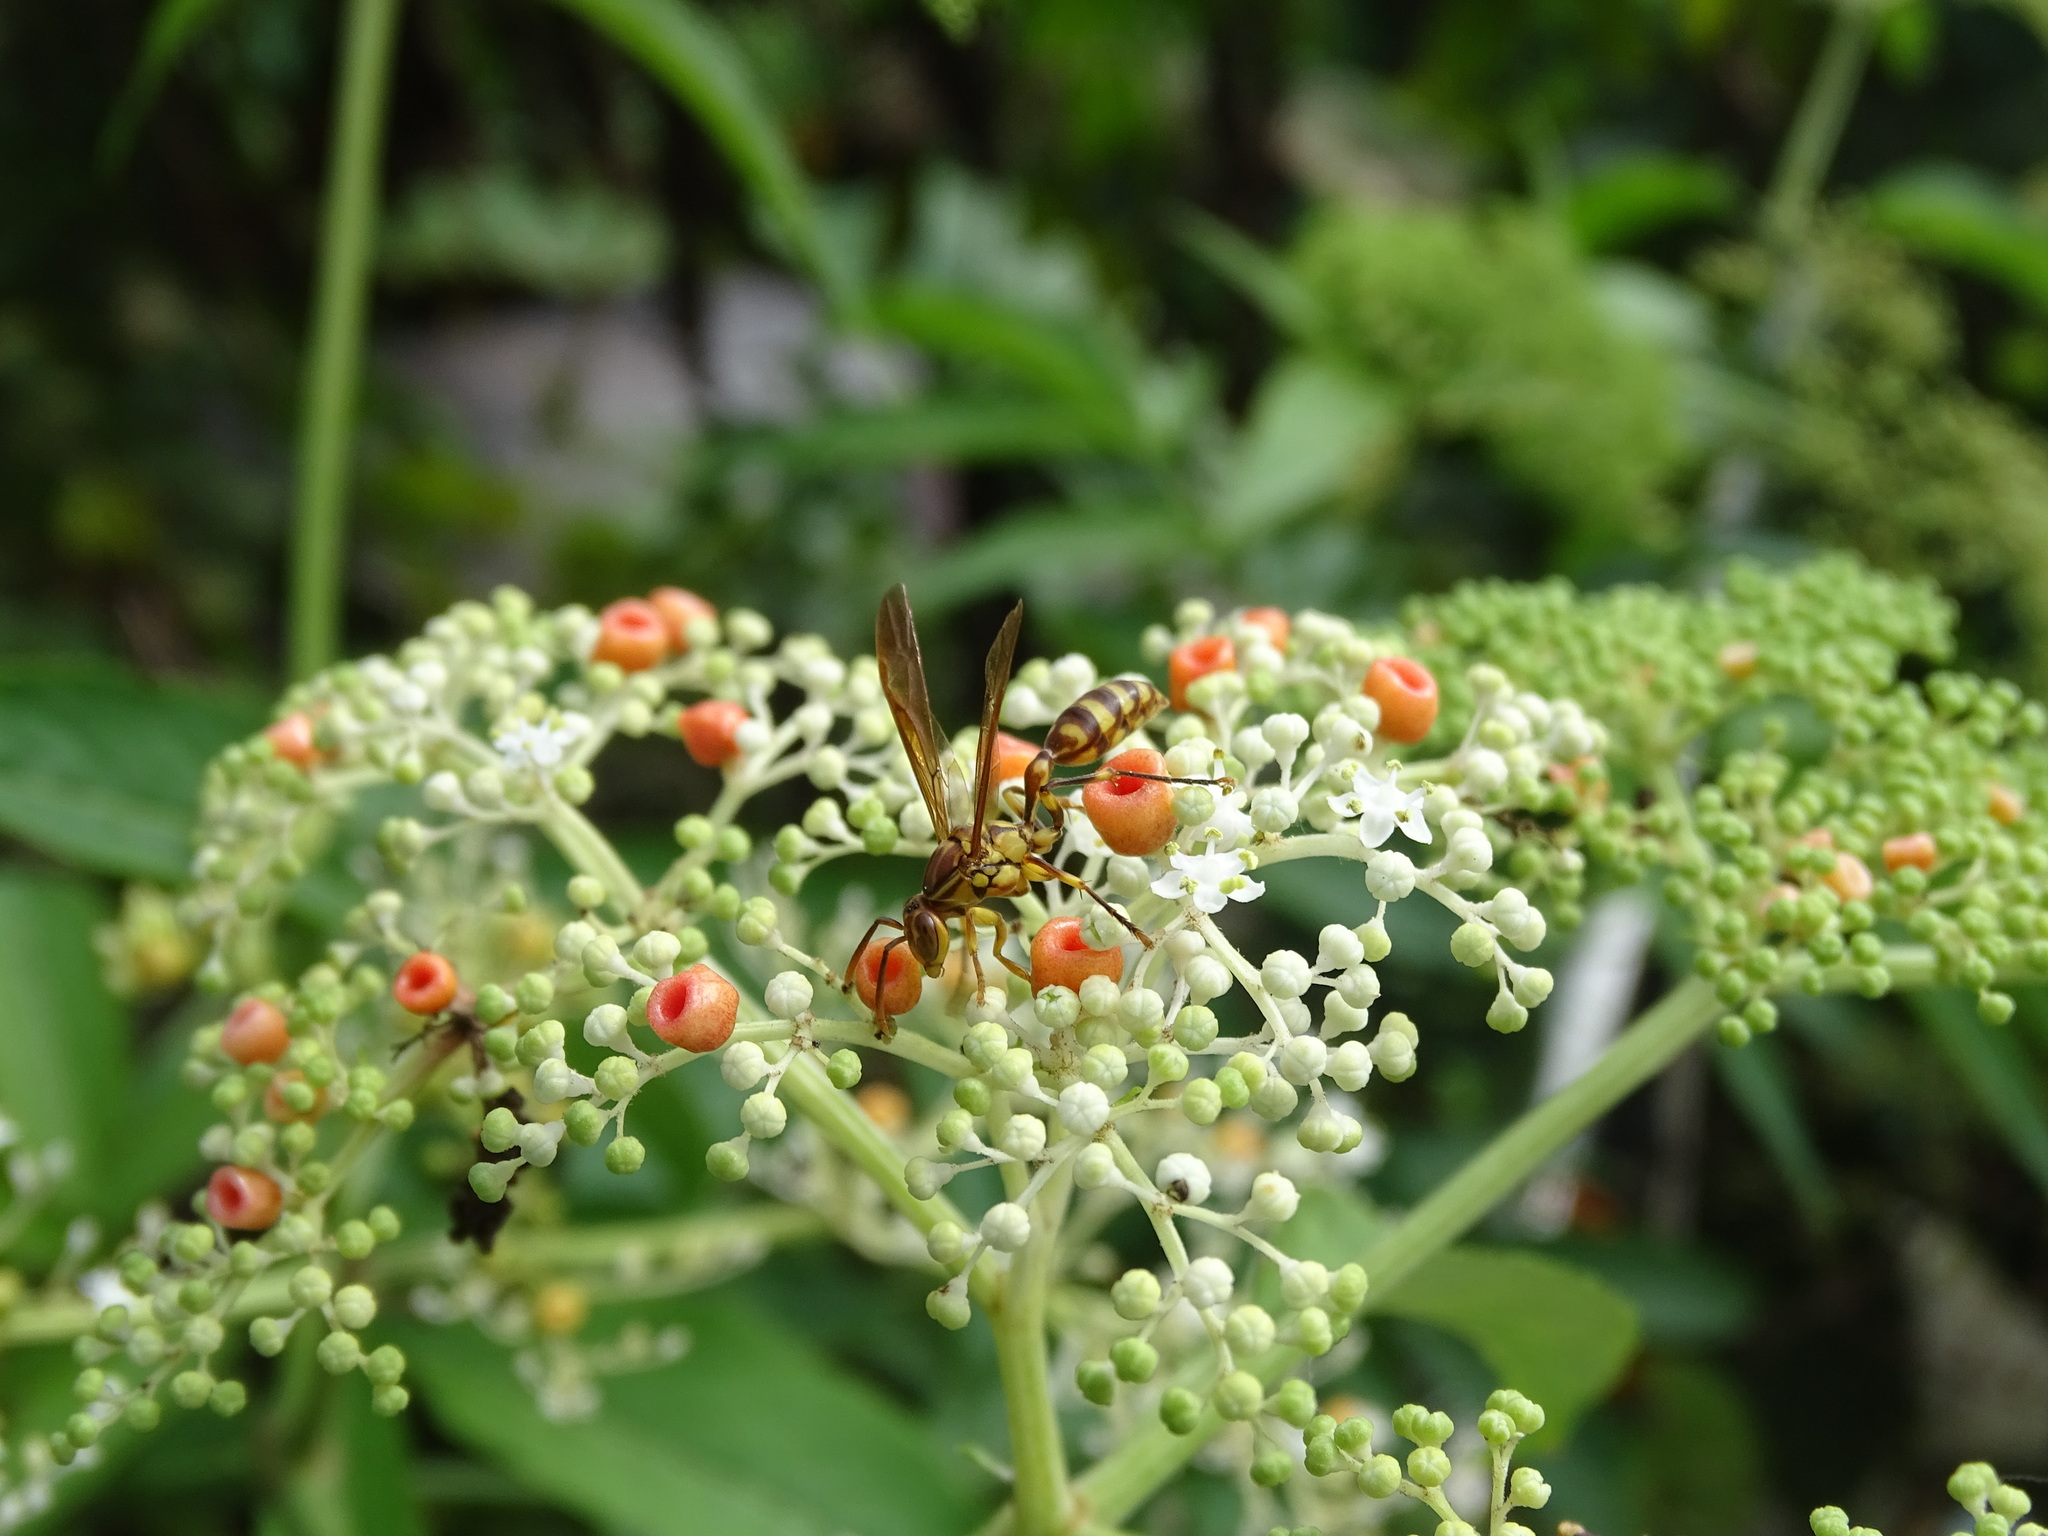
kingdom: Animalia
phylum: Arthropoda
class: Insecta
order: Hymenoptera
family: Vespidae
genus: Parapolybia
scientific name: Parapolybia varia
